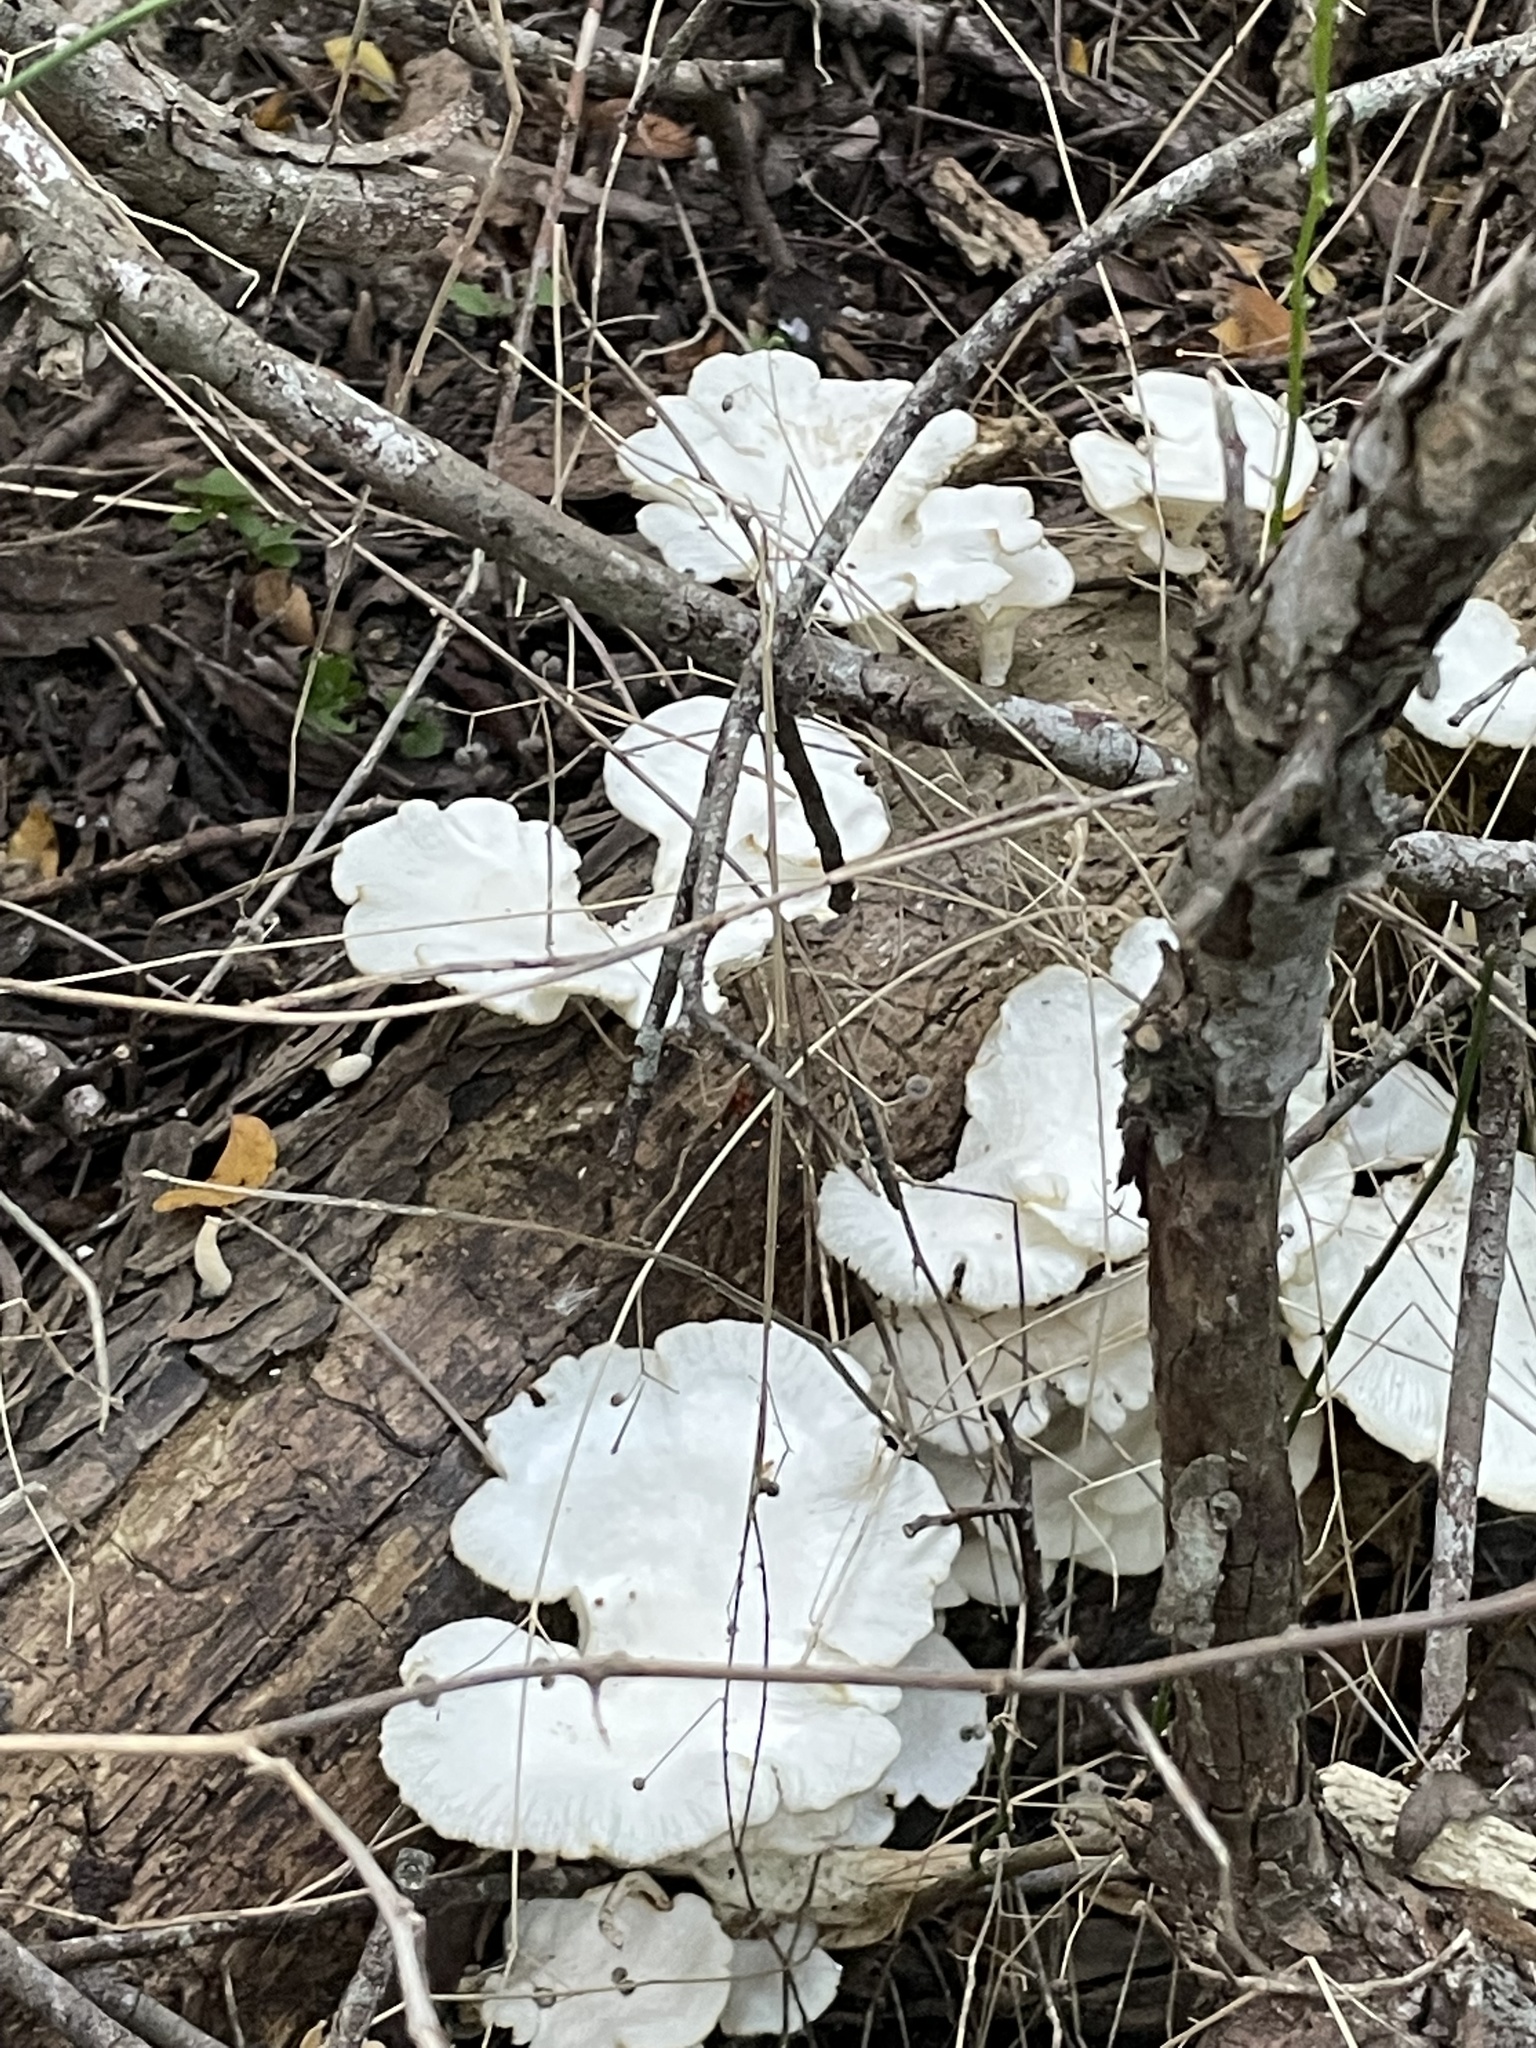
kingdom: Fungi
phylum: Basidiomycota
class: Agaricomycetes
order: Polyporales
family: Polyporaceae
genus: Favolus
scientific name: Favolus tenuiculus
